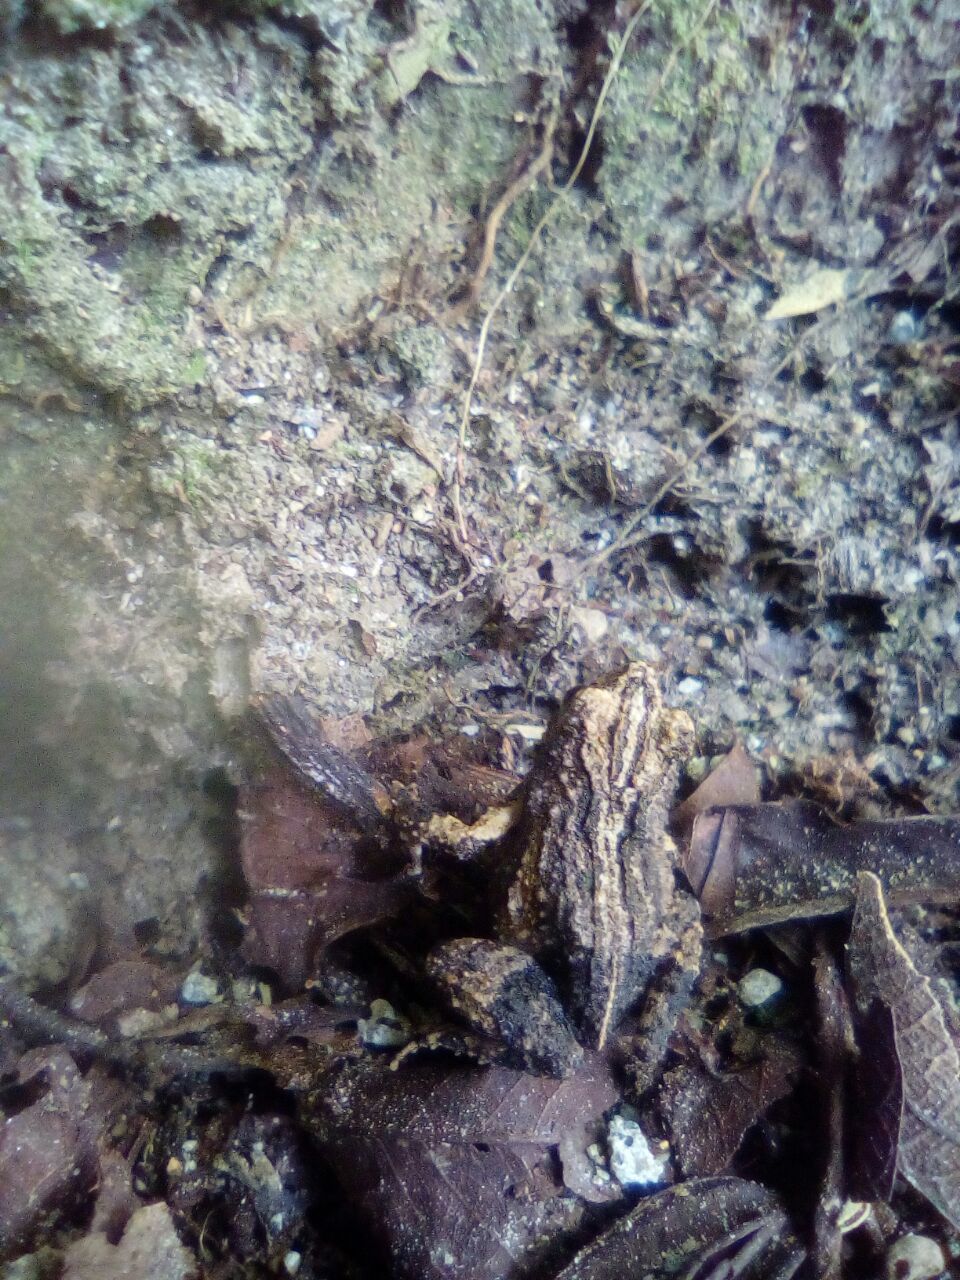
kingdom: Animalia
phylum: Chordata
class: Amphibia
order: Anura
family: Leptodactylidae
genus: Engystomops
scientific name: Engystomops pustulosus
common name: Tungara frog
